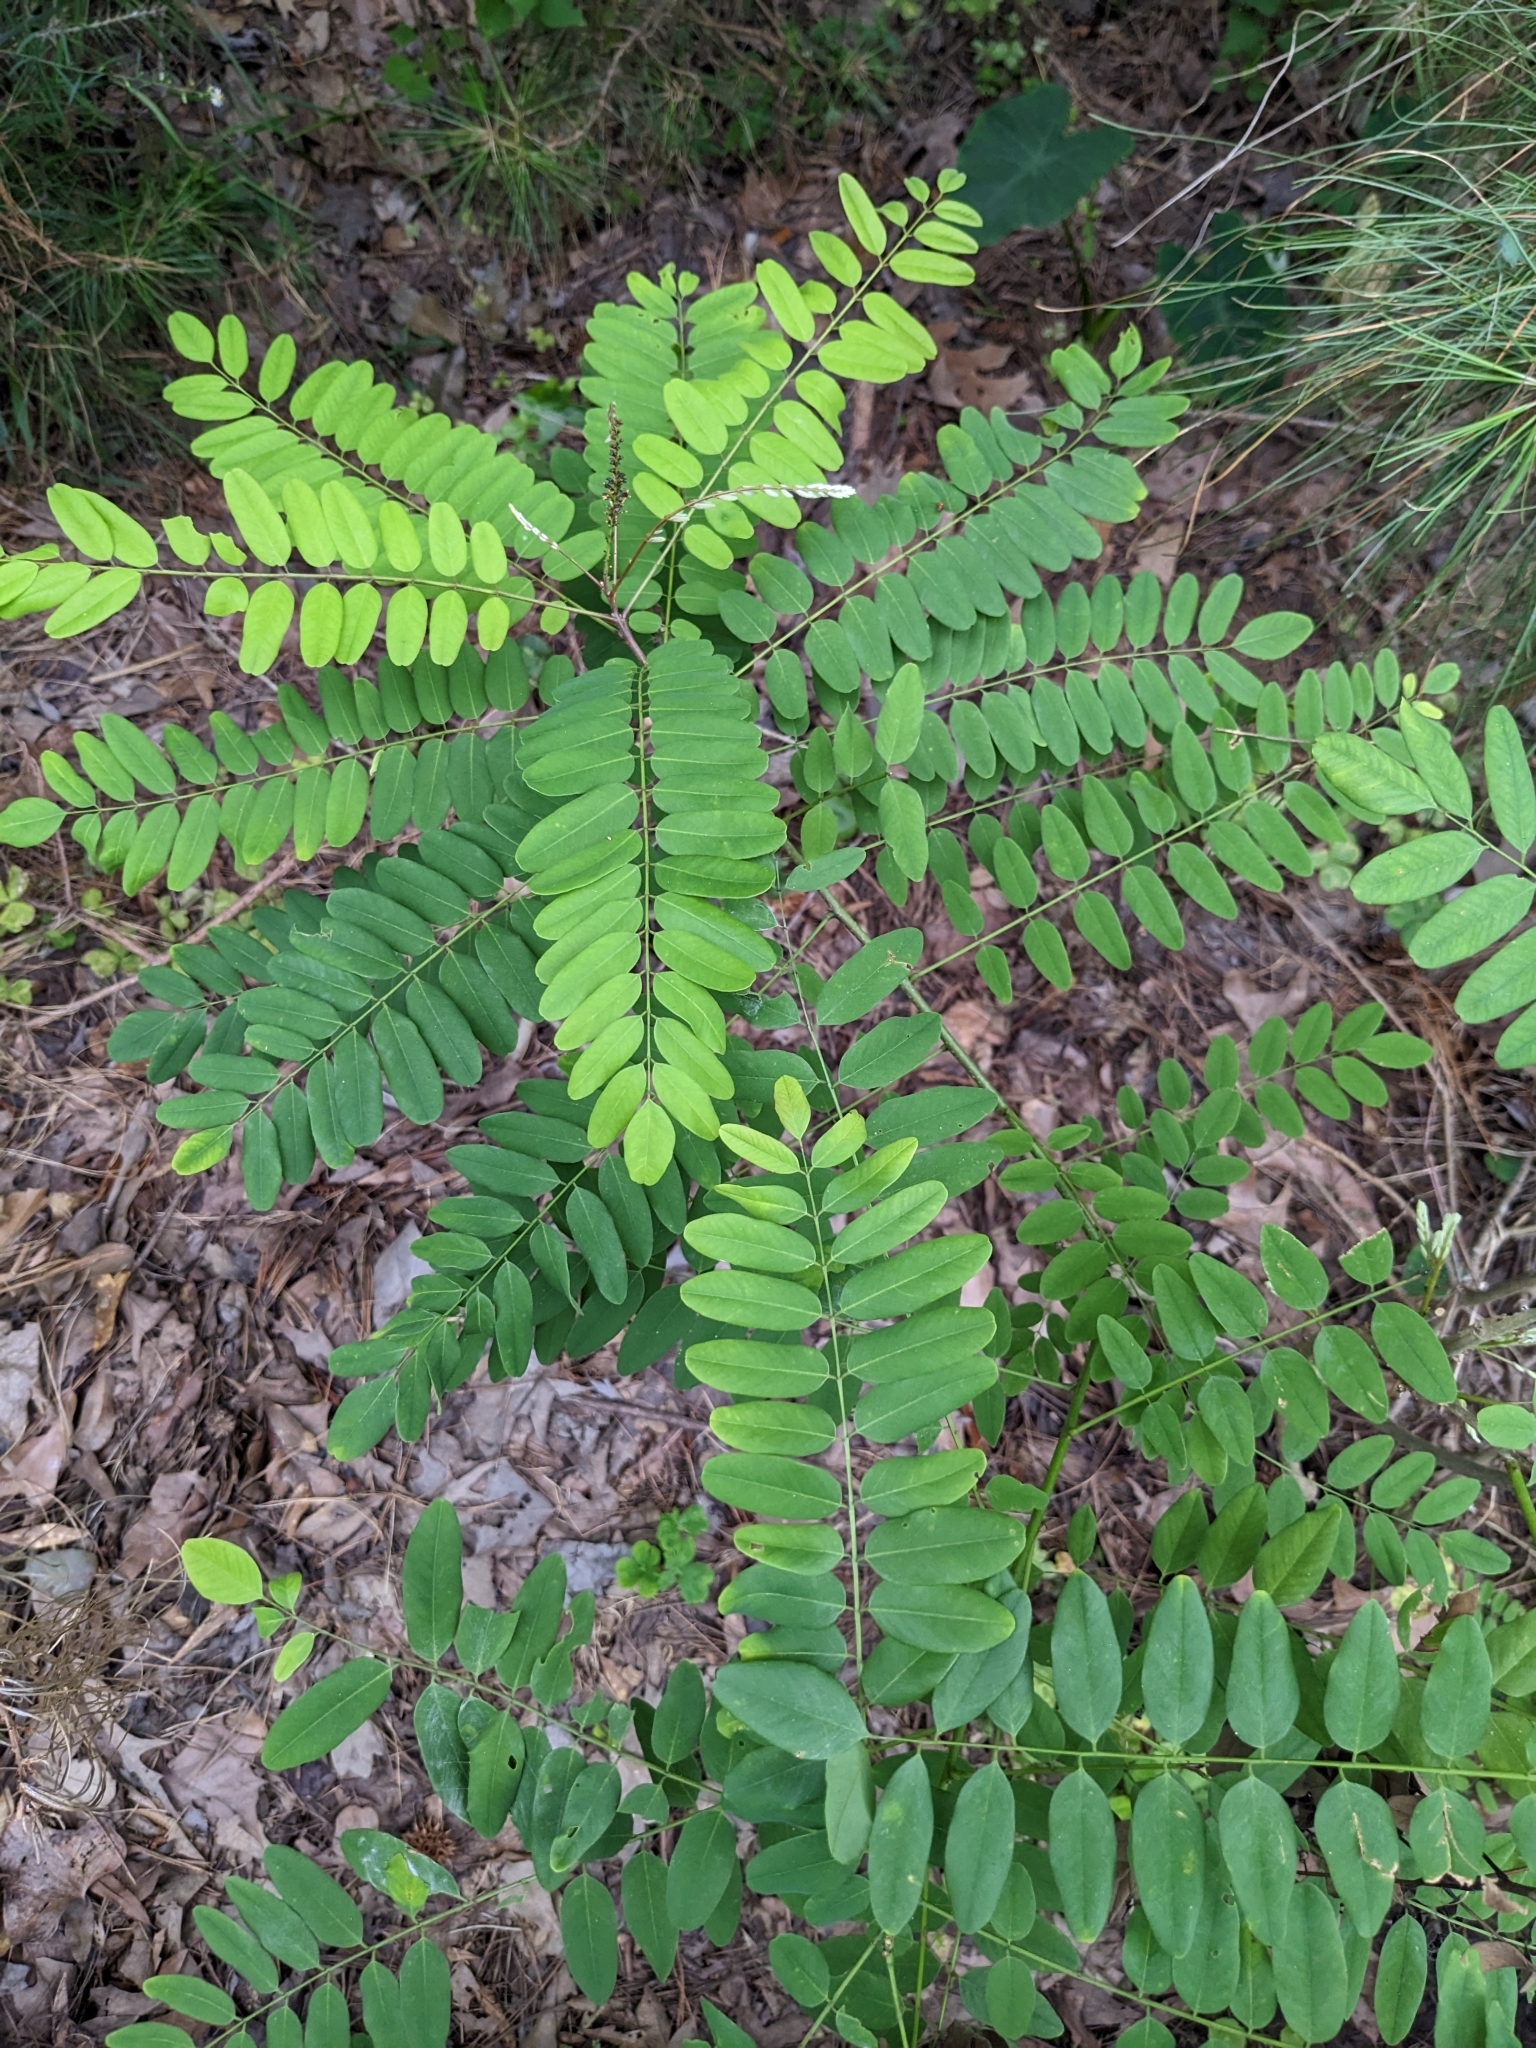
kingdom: Plantae
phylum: Tracheophyta
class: Magnoliopsida
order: Fabales
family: Fabaceae
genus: Amorpha
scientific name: Amorpha fruticosa
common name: False indigo
